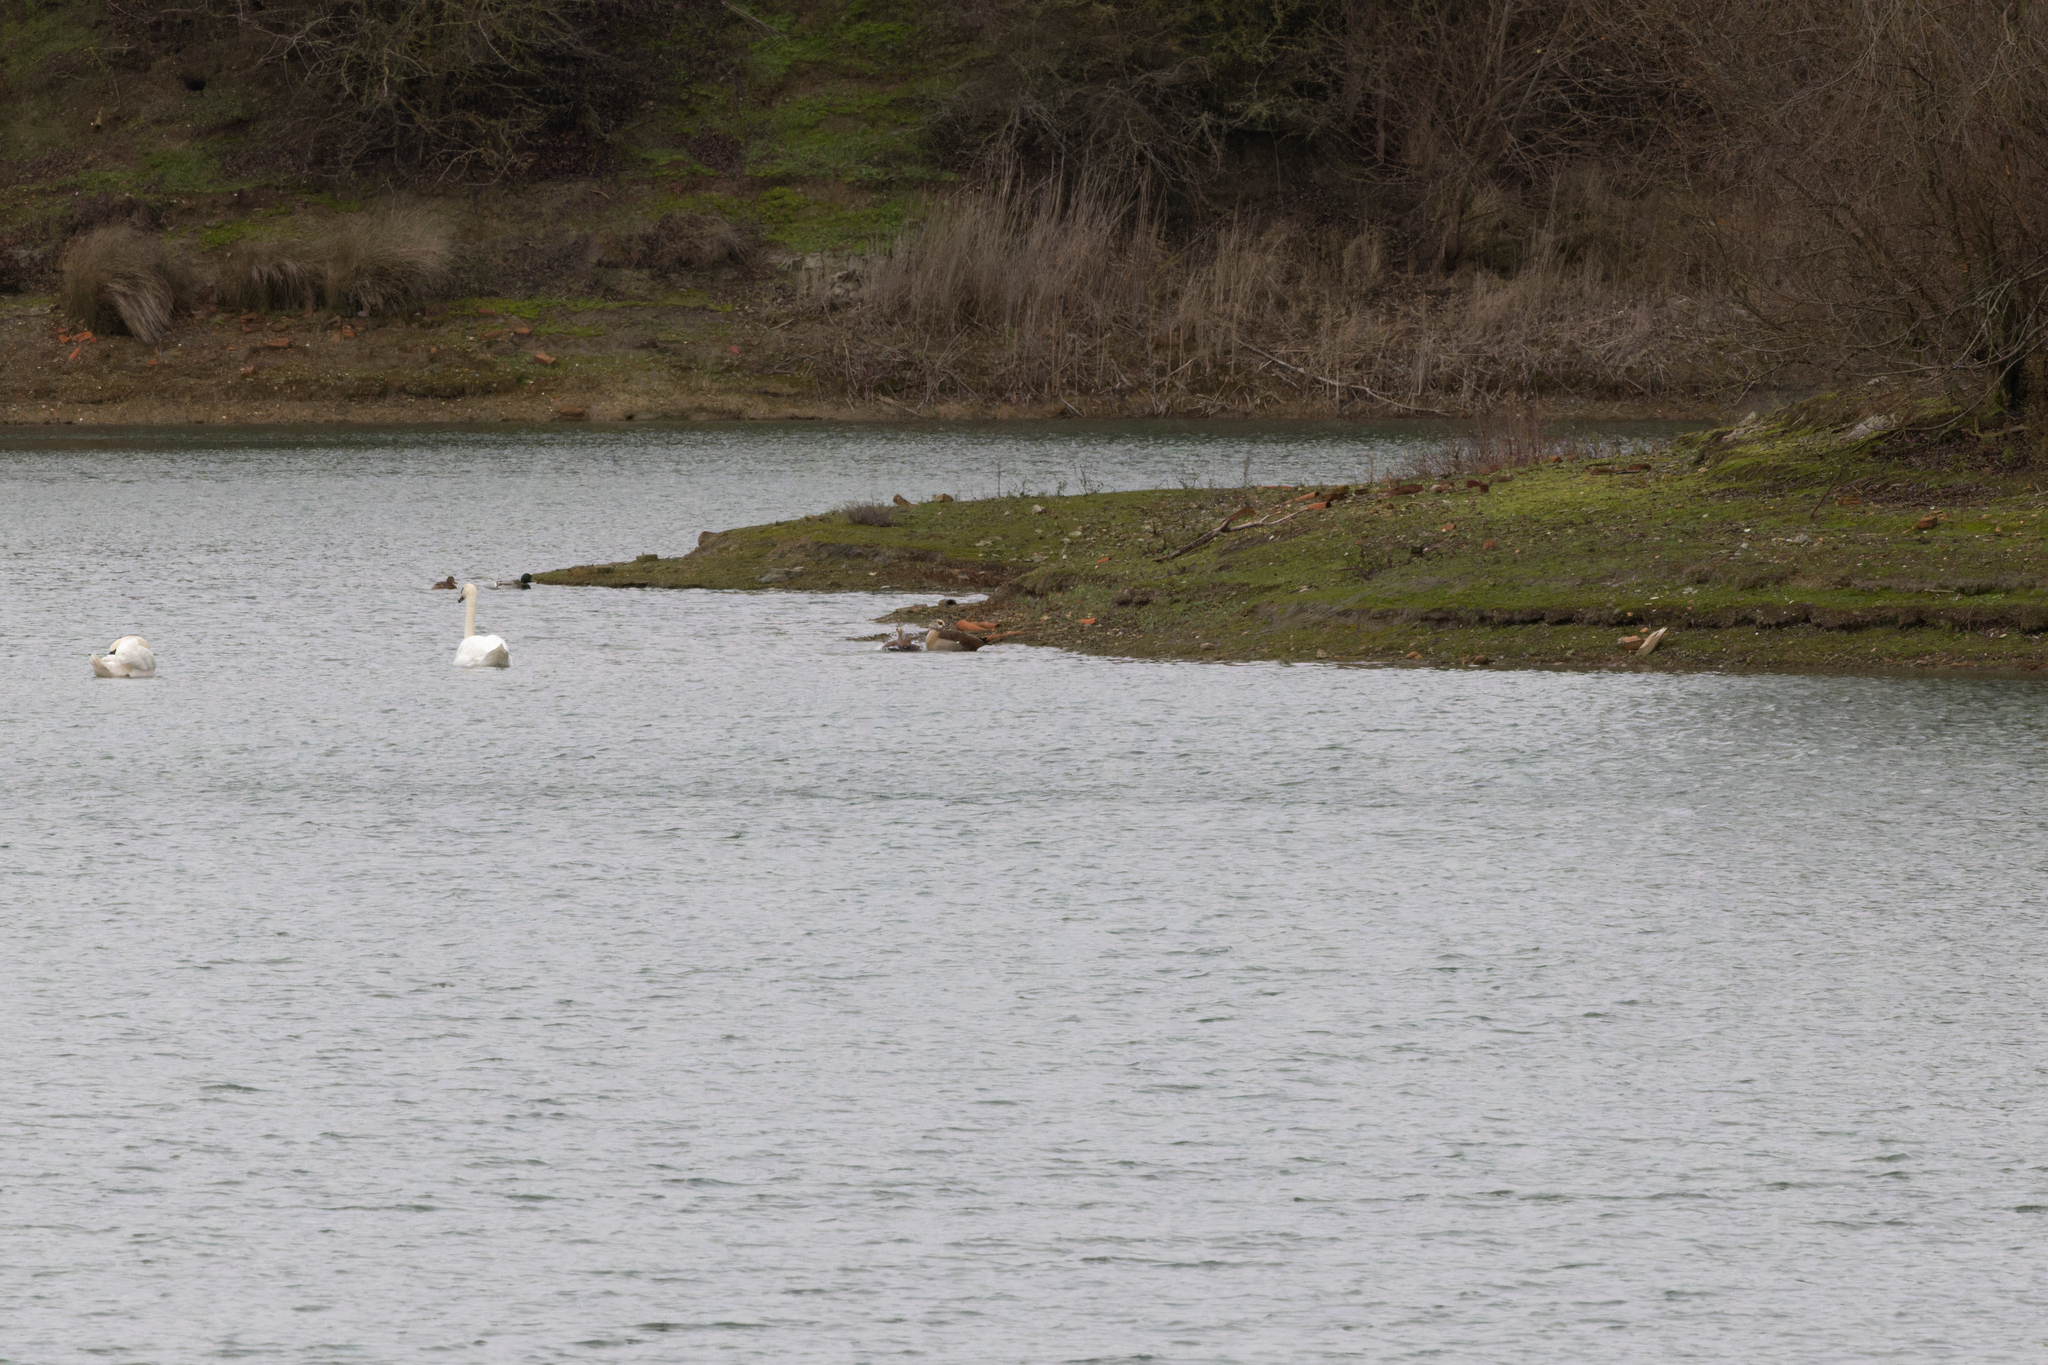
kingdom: Animalia
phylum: Chordata
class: Aves
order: Anseriformes
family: Anatidae
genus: Cygnus
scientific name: Cygnus olor
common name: Mute swan
